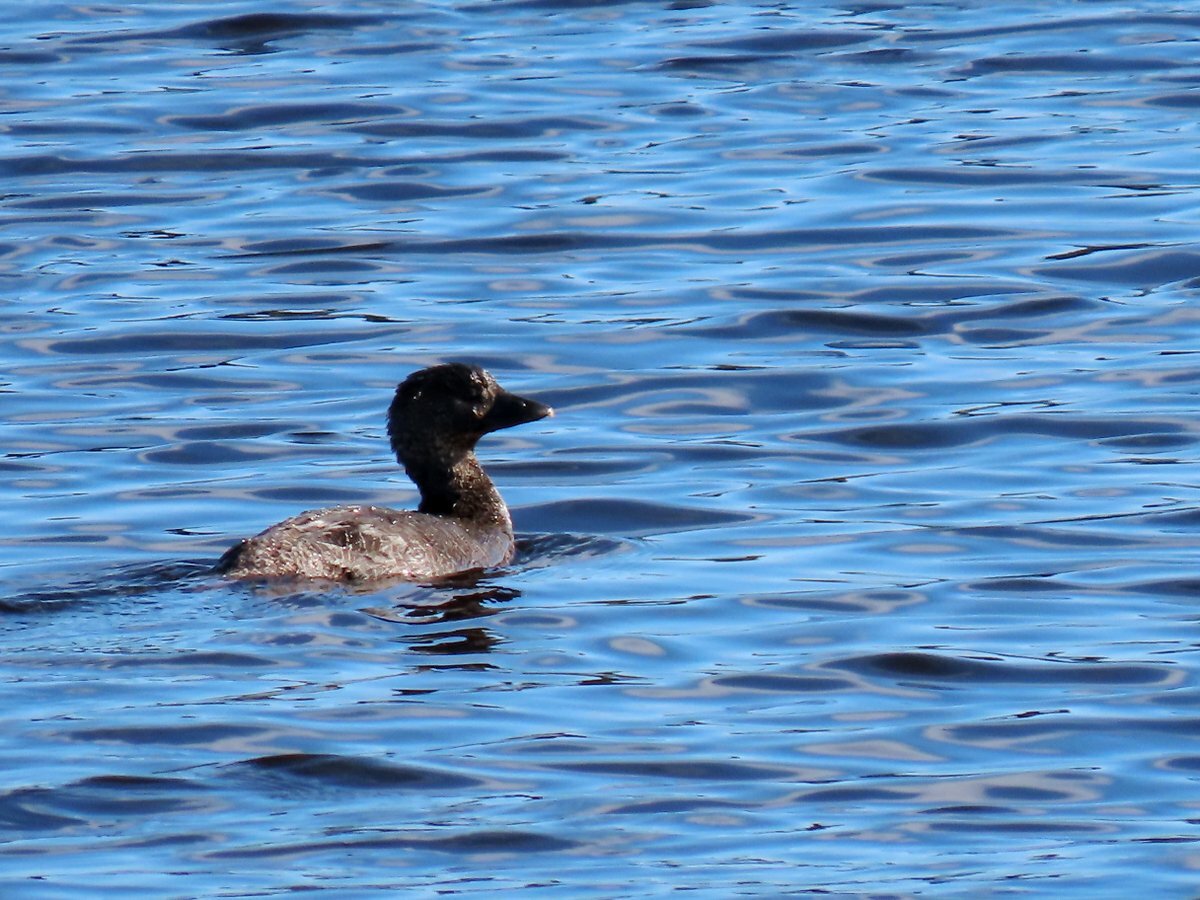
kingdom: Animalia
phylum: Chordata
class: Aves
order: Anseriformes
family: Anatidae
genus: Biziura
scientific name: Biziura lobata
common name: Musk duck
